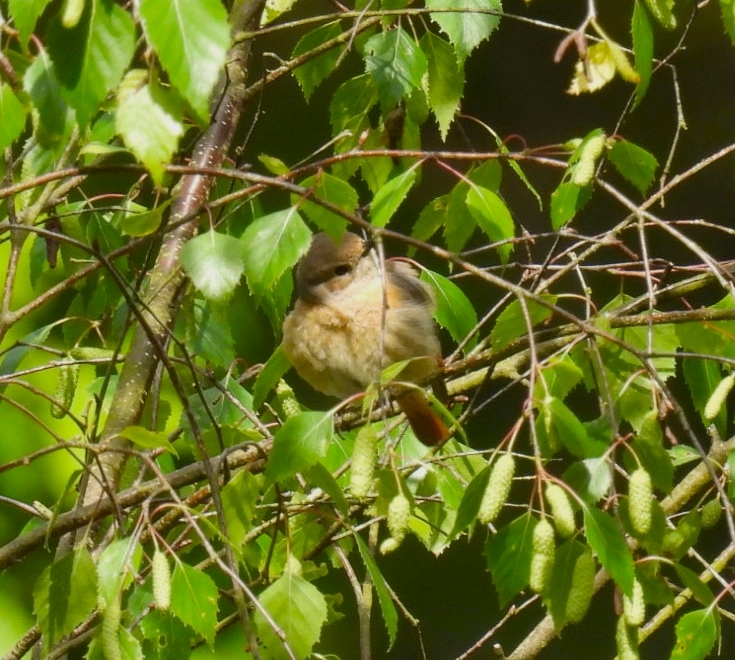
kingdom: Animalia
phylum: Chordata
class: Aves
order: Passeriformes
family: Muscicapidae
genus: Phoenicurus
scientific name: Phoenicurus phoenicurus
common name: Common redstart
